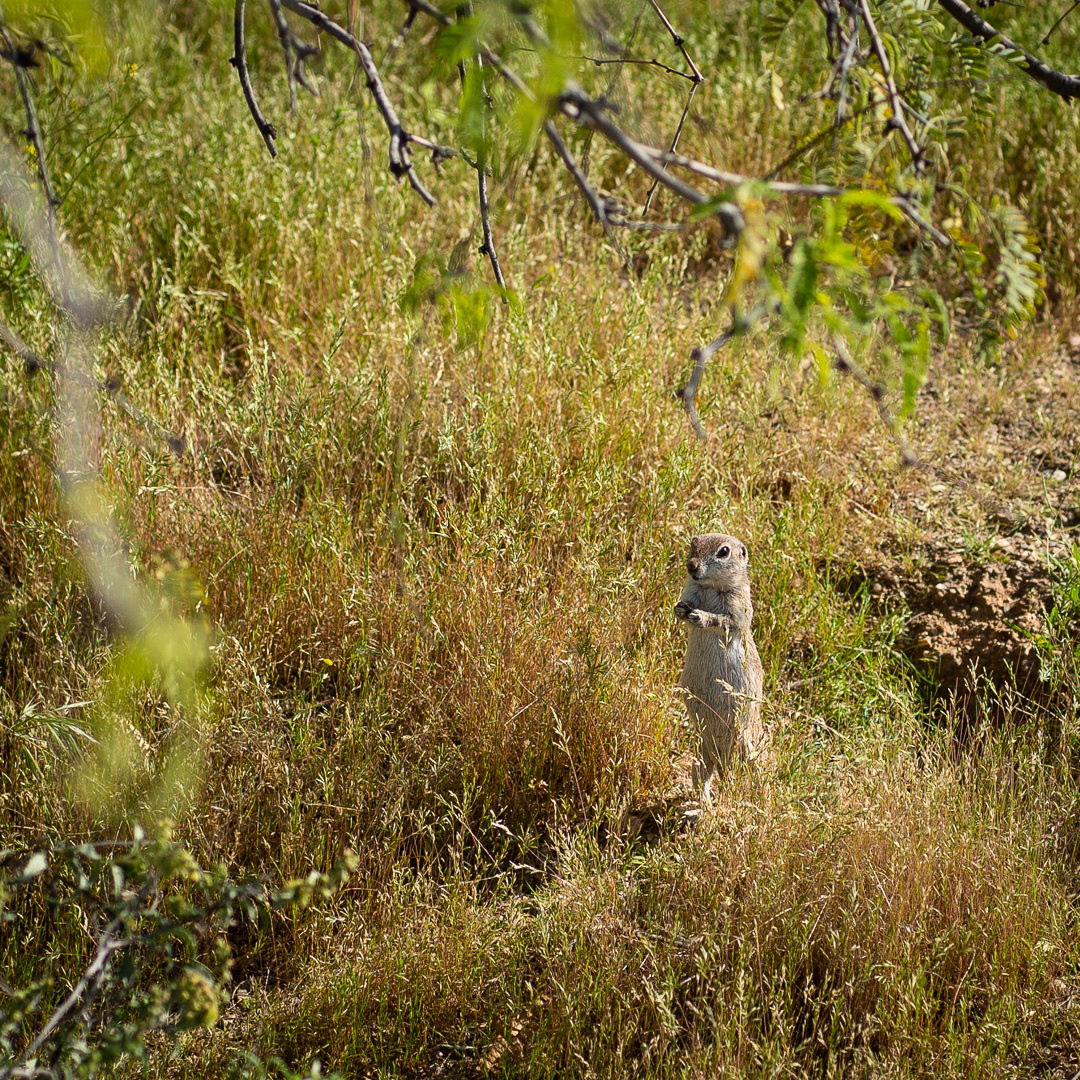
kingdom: Animalia
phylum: Chordata
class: Mammalia
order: Rodentia
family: Sciuridae
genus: Xerospermophilus
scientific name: Xerospermophilus tereticaudus
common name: Round-tailed ground squirrel
